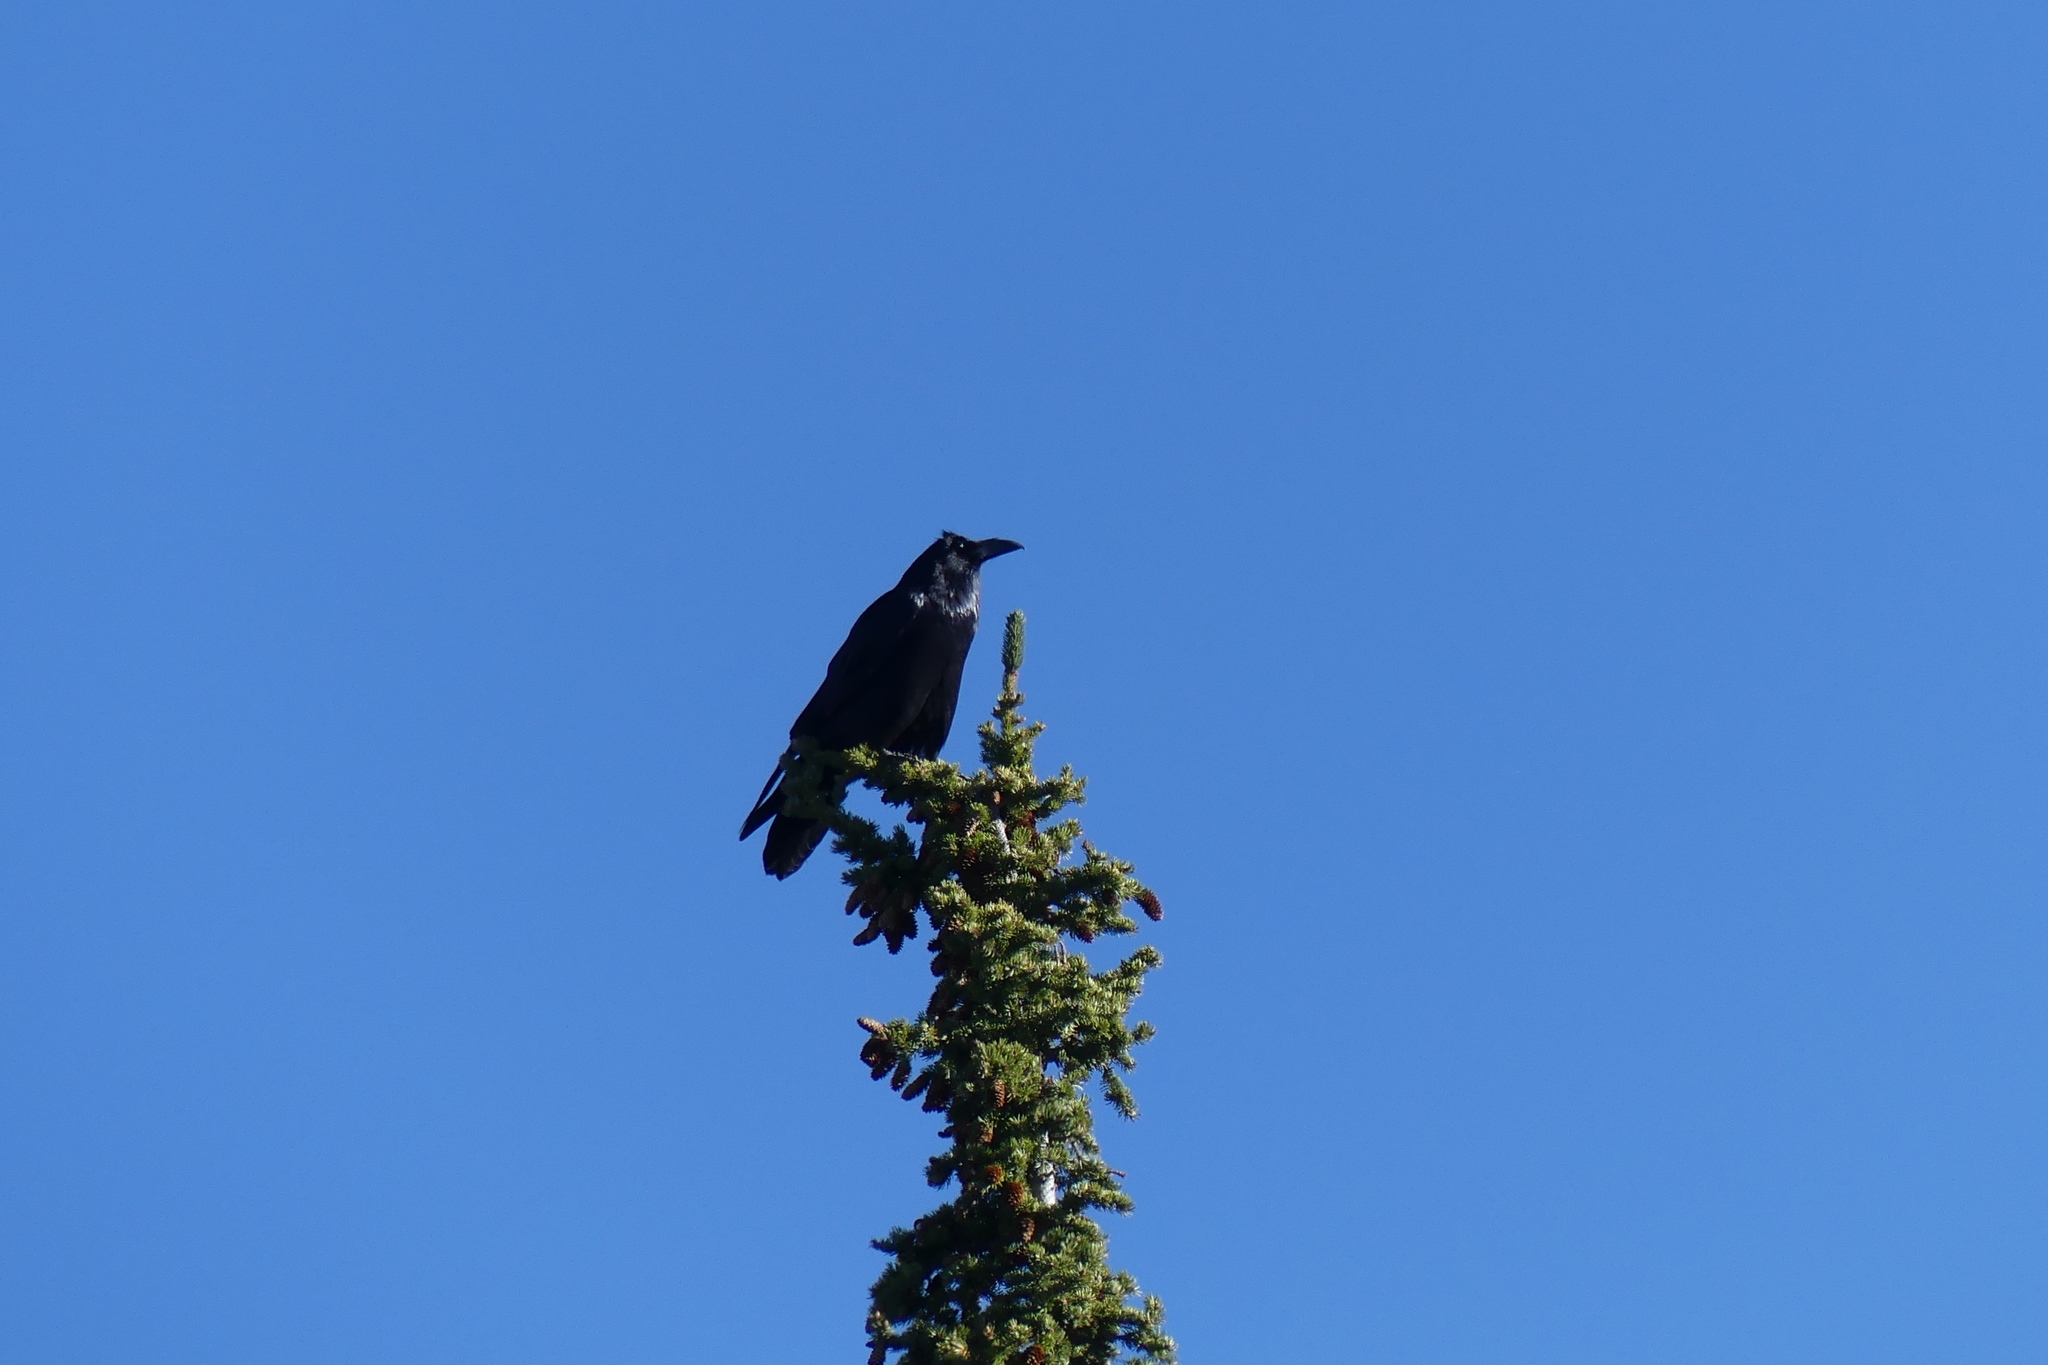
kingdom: Animalia
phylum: Chordata
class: Aves
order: Passeriformes
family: Corvidae
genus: Corvus
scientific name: Corvus corax
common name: Common raven
